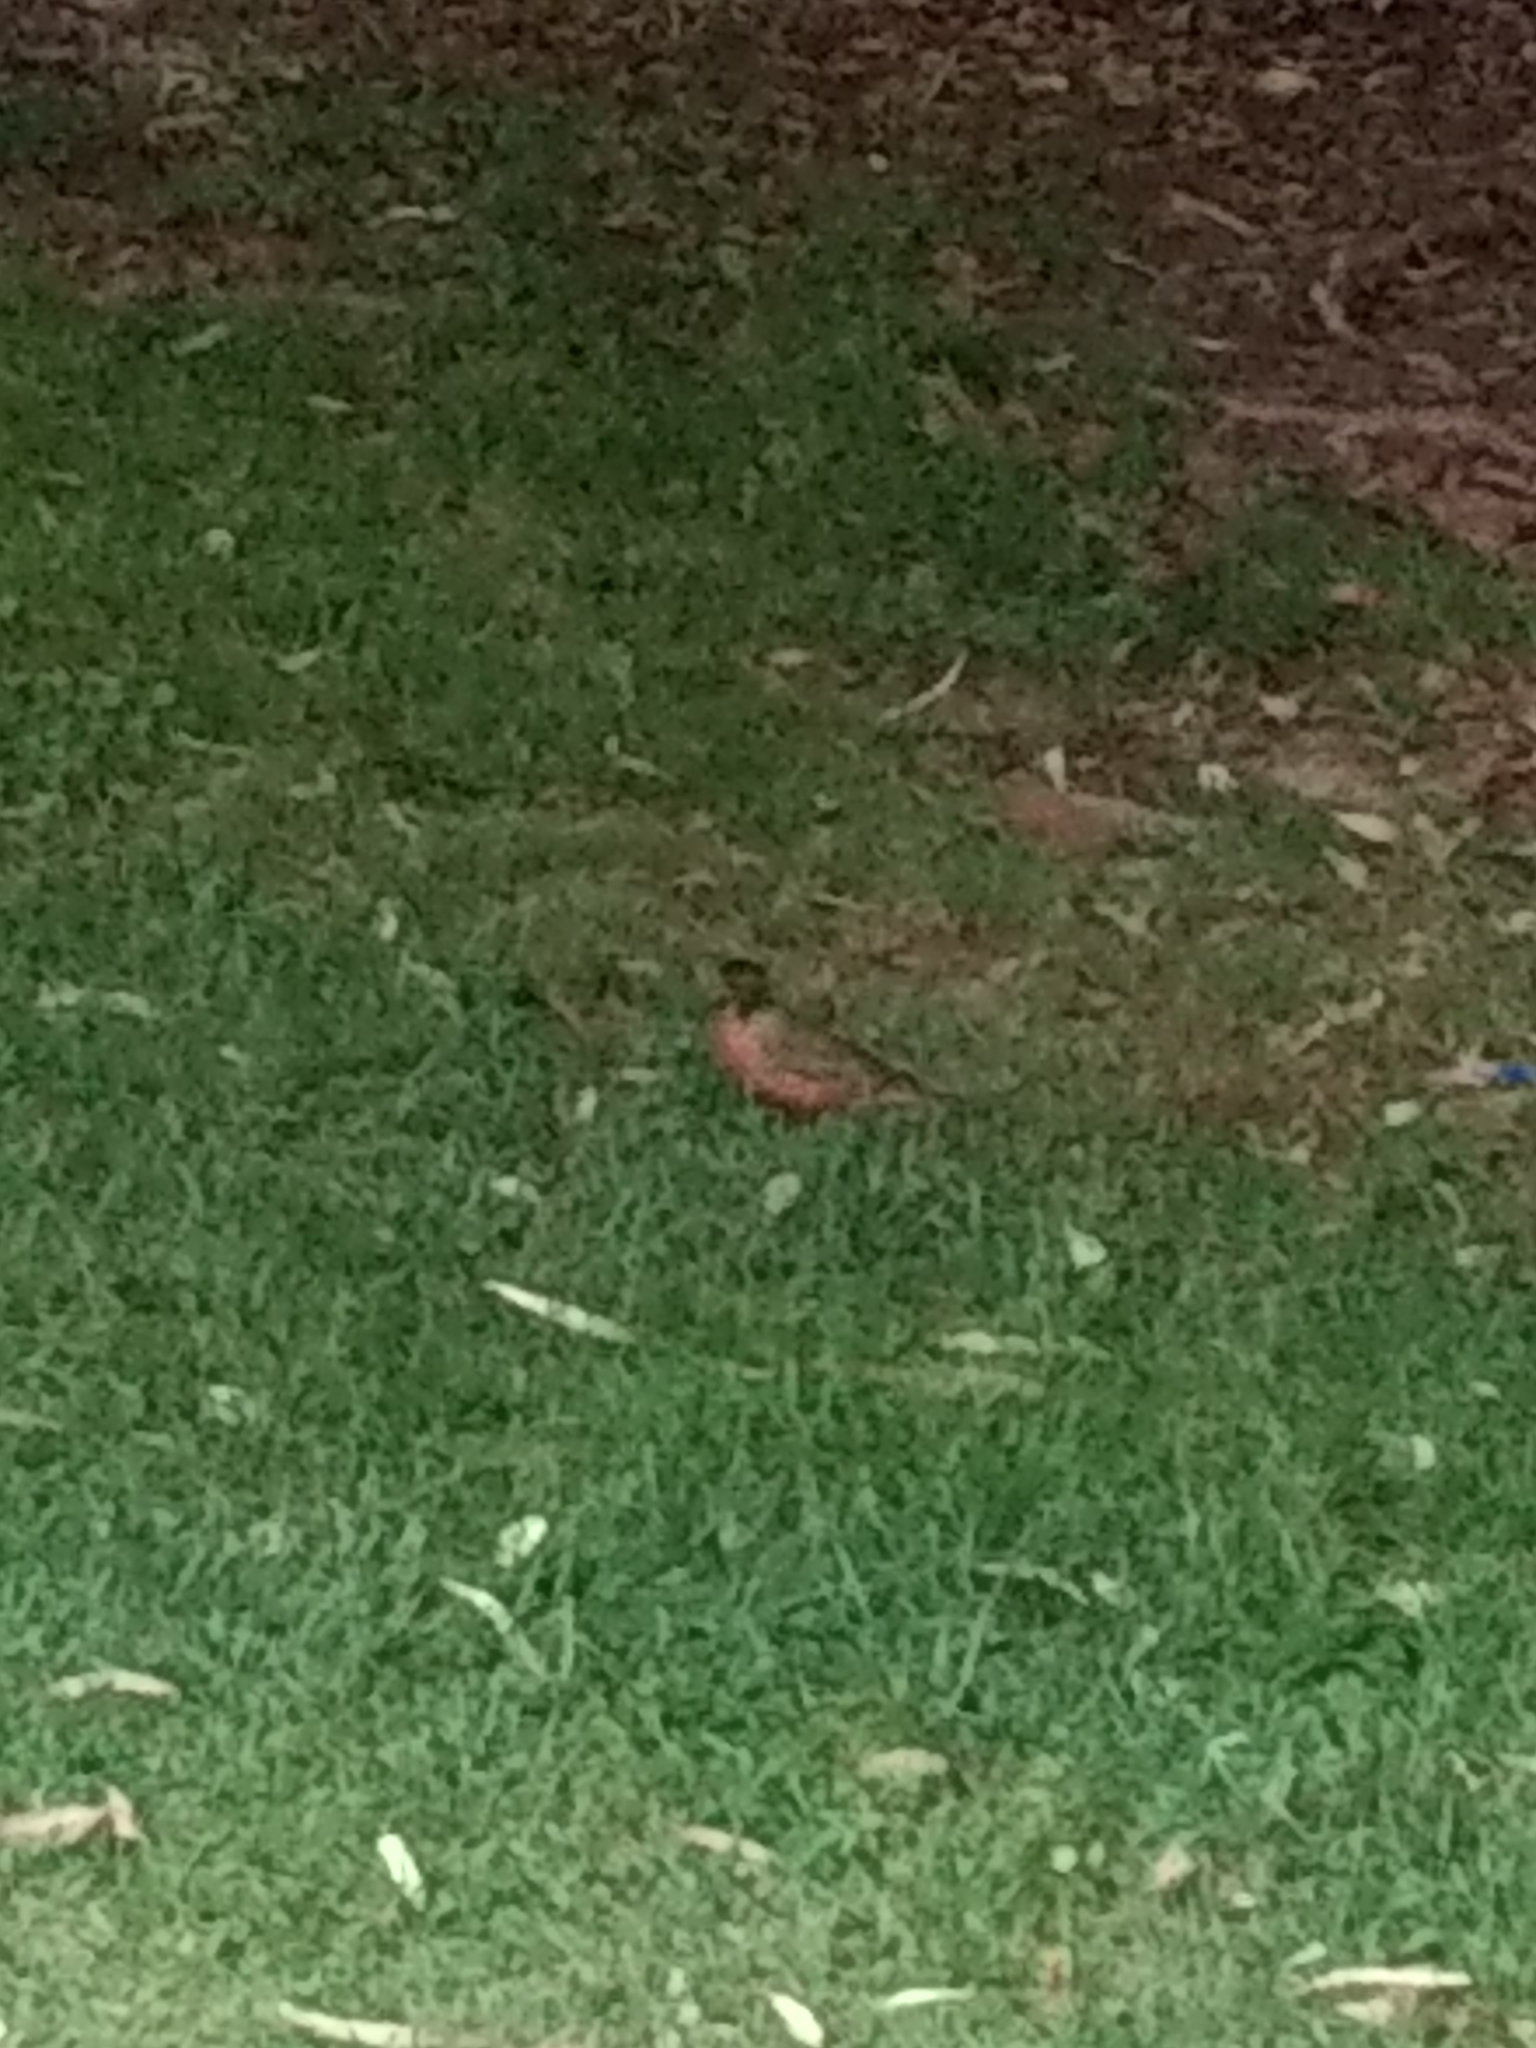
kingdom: Animalia
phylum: Chordata
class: Aves
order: Passeriformes
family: Turdidae
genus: Turdus
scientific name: Turdus migratorius
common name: American robin
